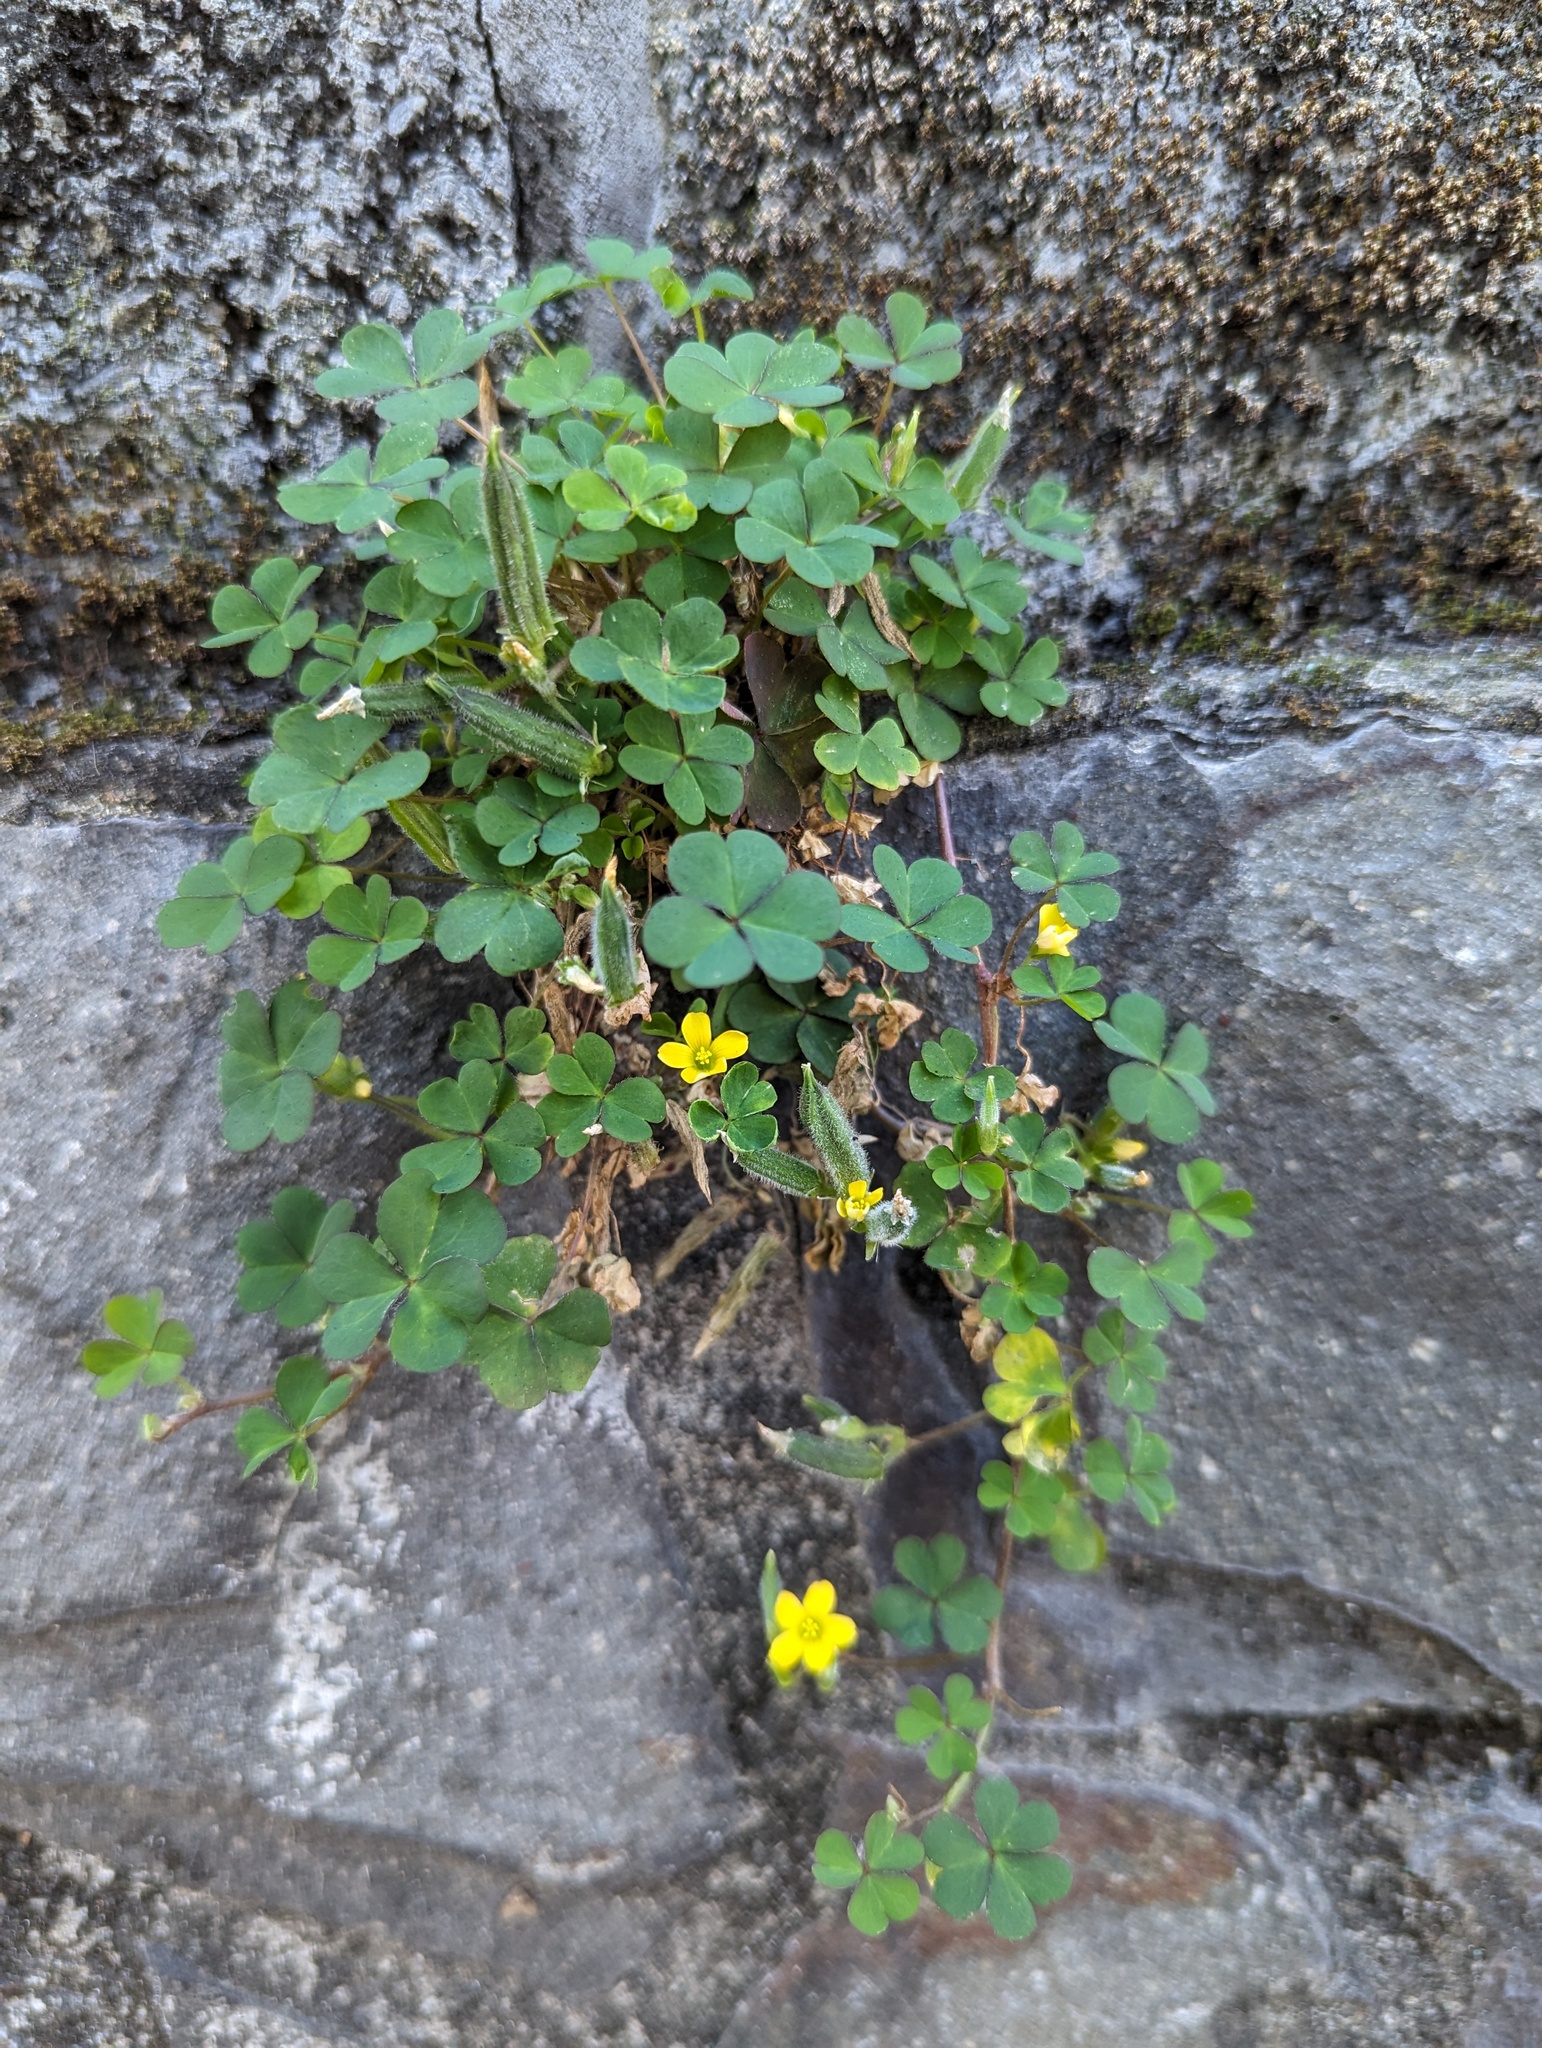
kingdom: Plantae
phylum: Tracheophyta
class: Magnoliopsida
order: Oxalidales
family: Oxalidaceae
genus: Oxalis
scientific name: Oxalis corniculata
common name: Procumbent yellow-sorrel
